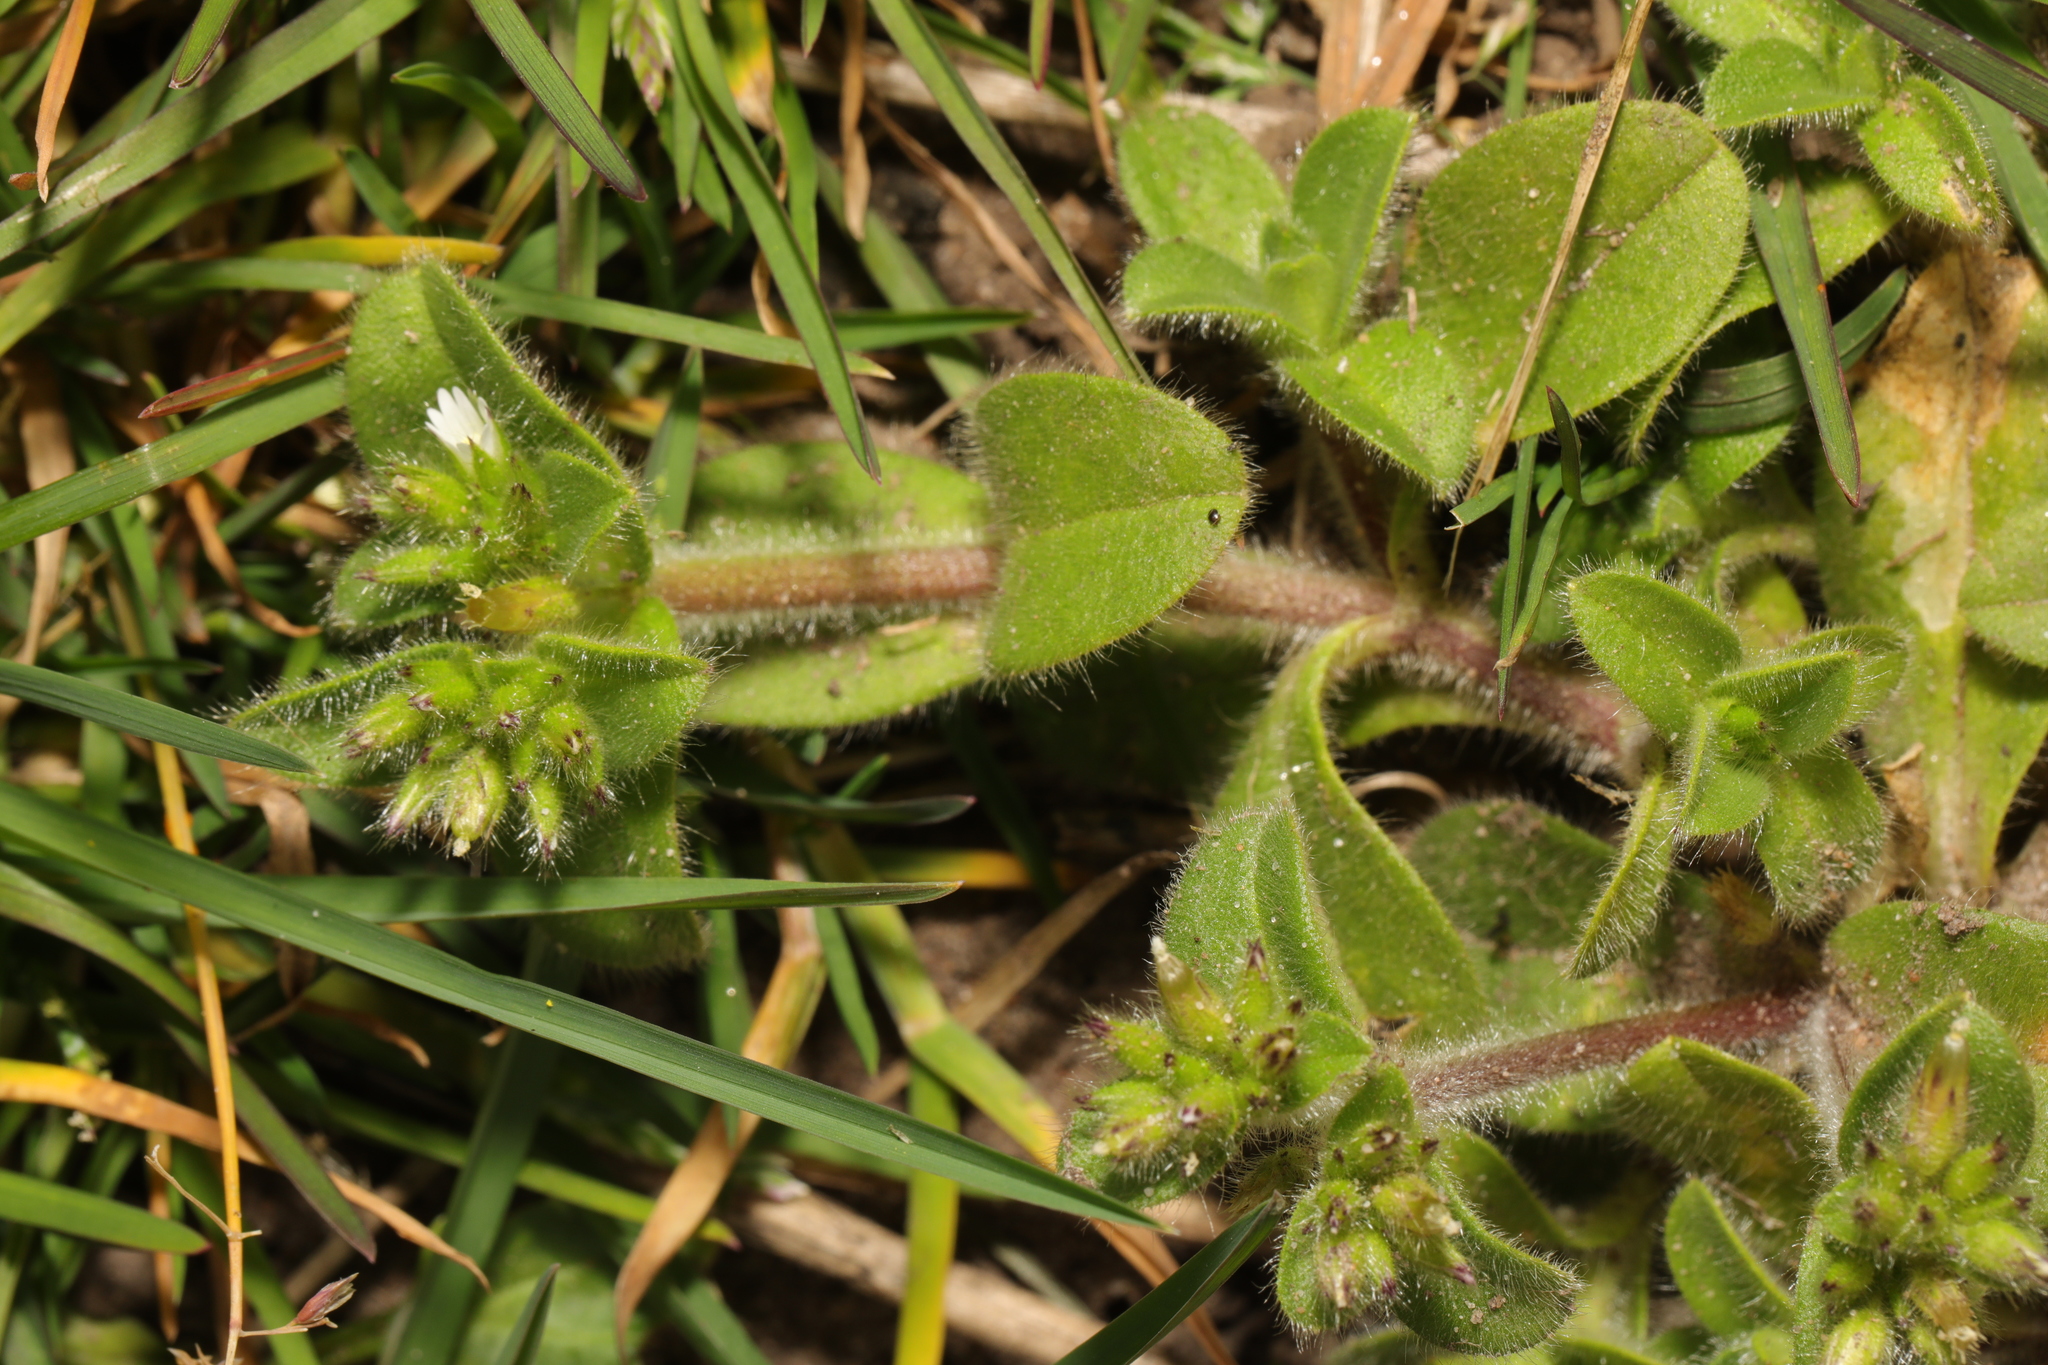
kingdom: Plantae
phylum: Tracheophyta
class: Magnoliopsida
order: Caryophyllales
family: Caryophyllaceae
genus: Cerastium
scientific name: Cerastium glomeratum
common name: Sticky chickweed
